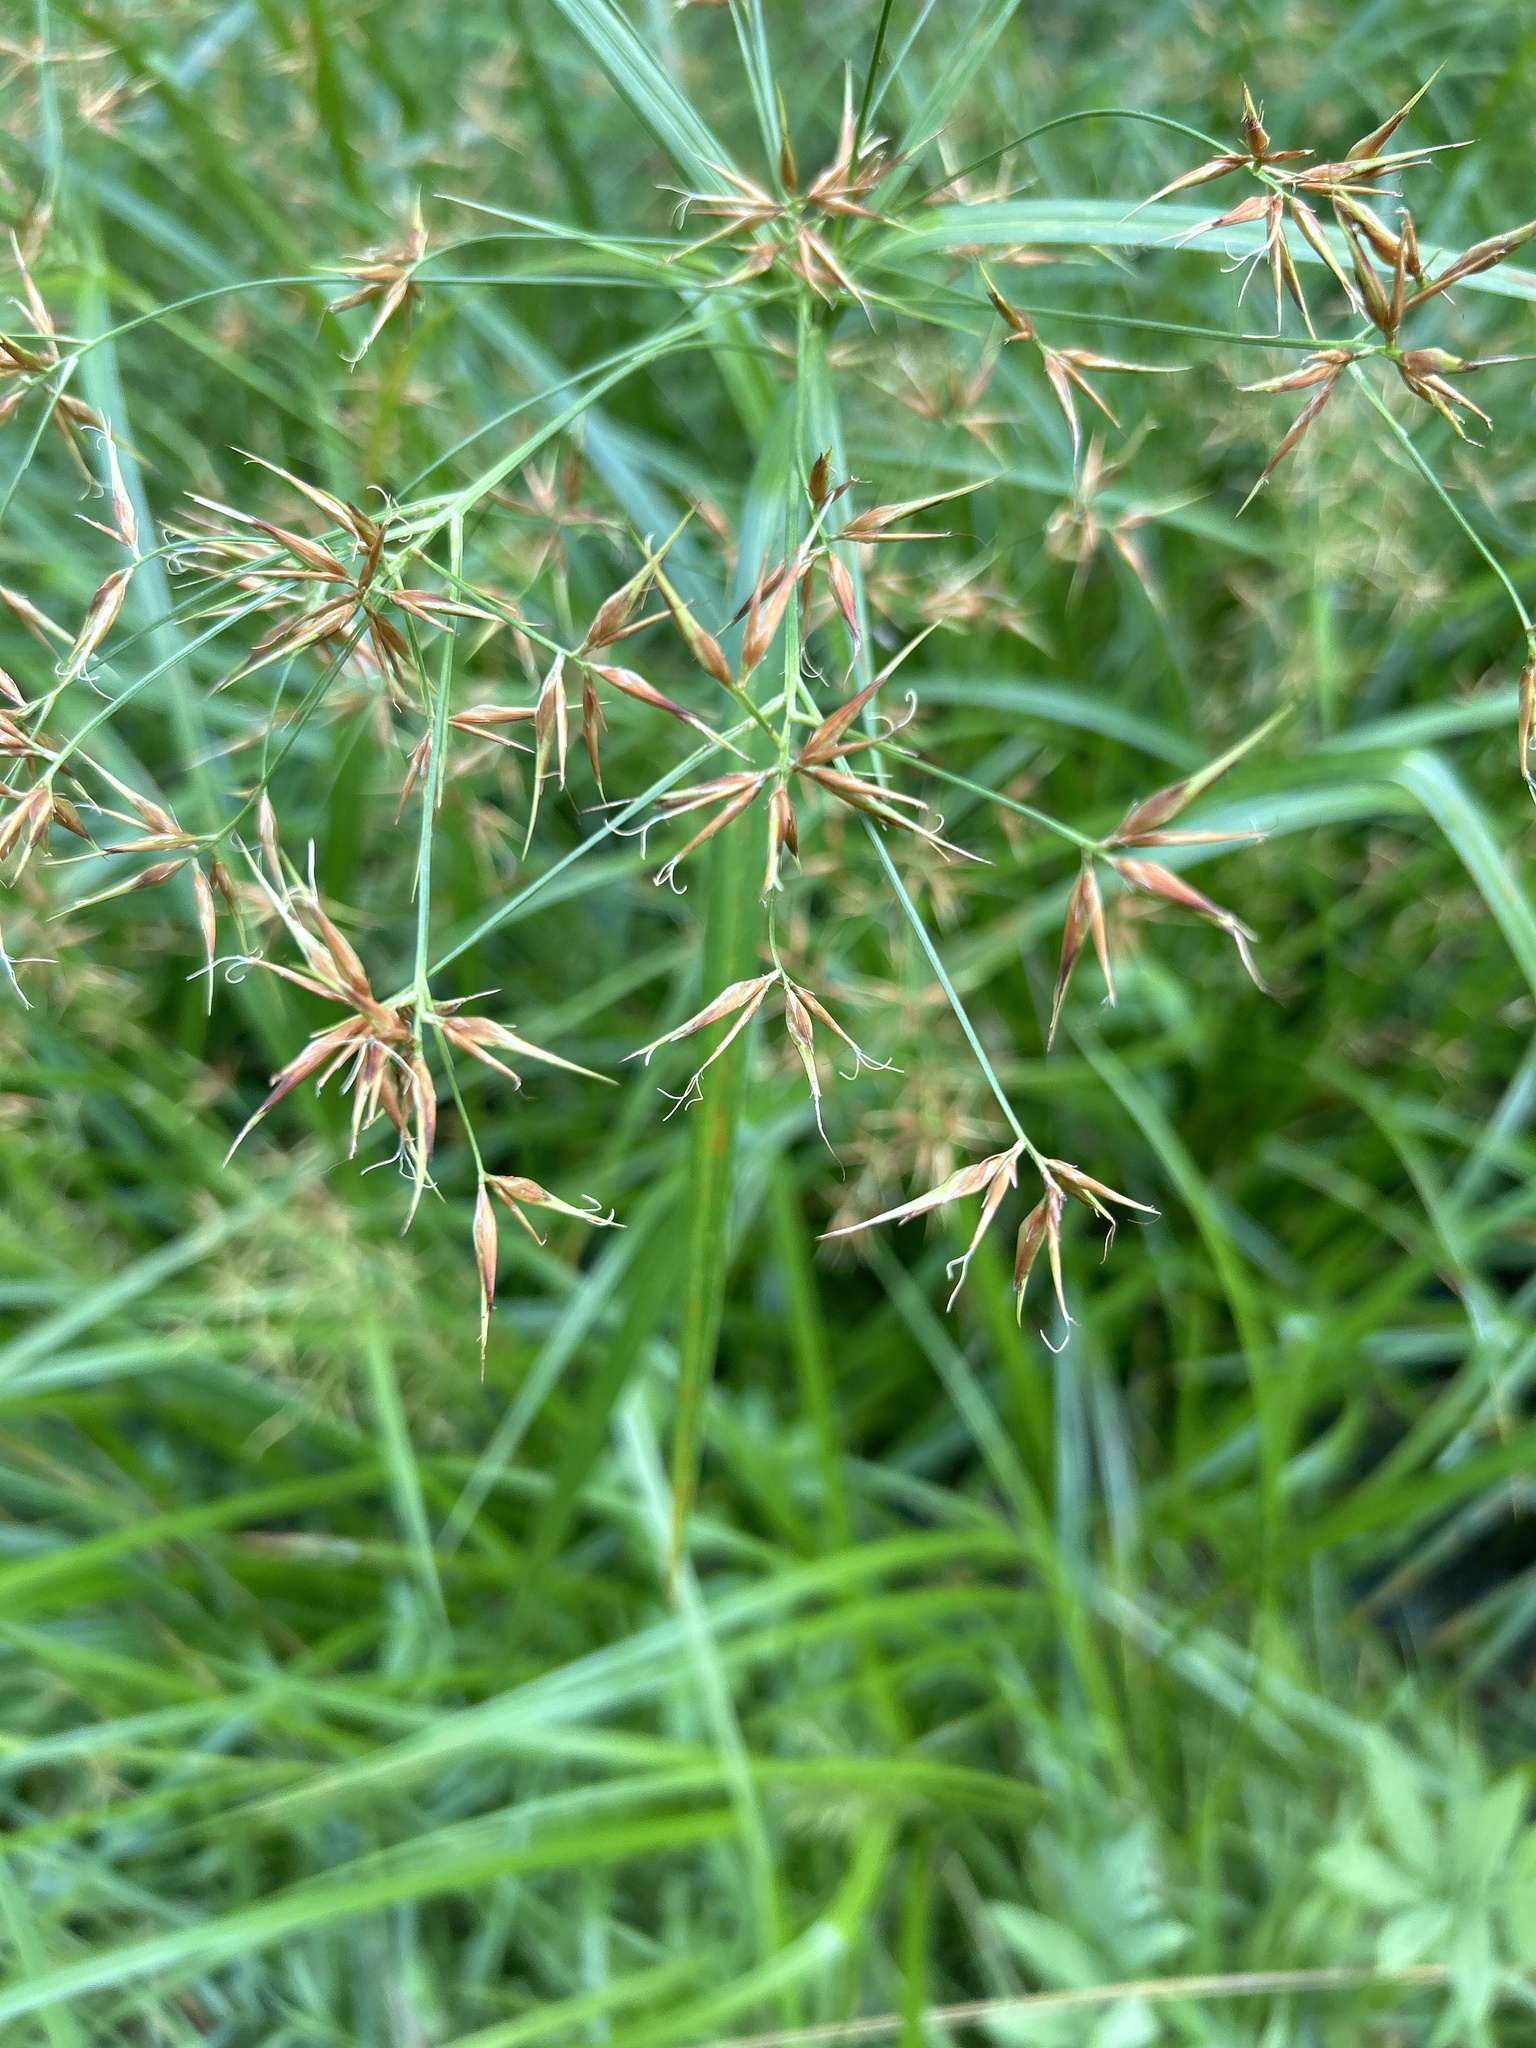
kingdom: Plantae
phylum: Tracheophyta
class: Liliopsida
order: Poales
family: Cyperaceae
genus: Rhynchospora
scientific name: Rhynchospora corniculata
